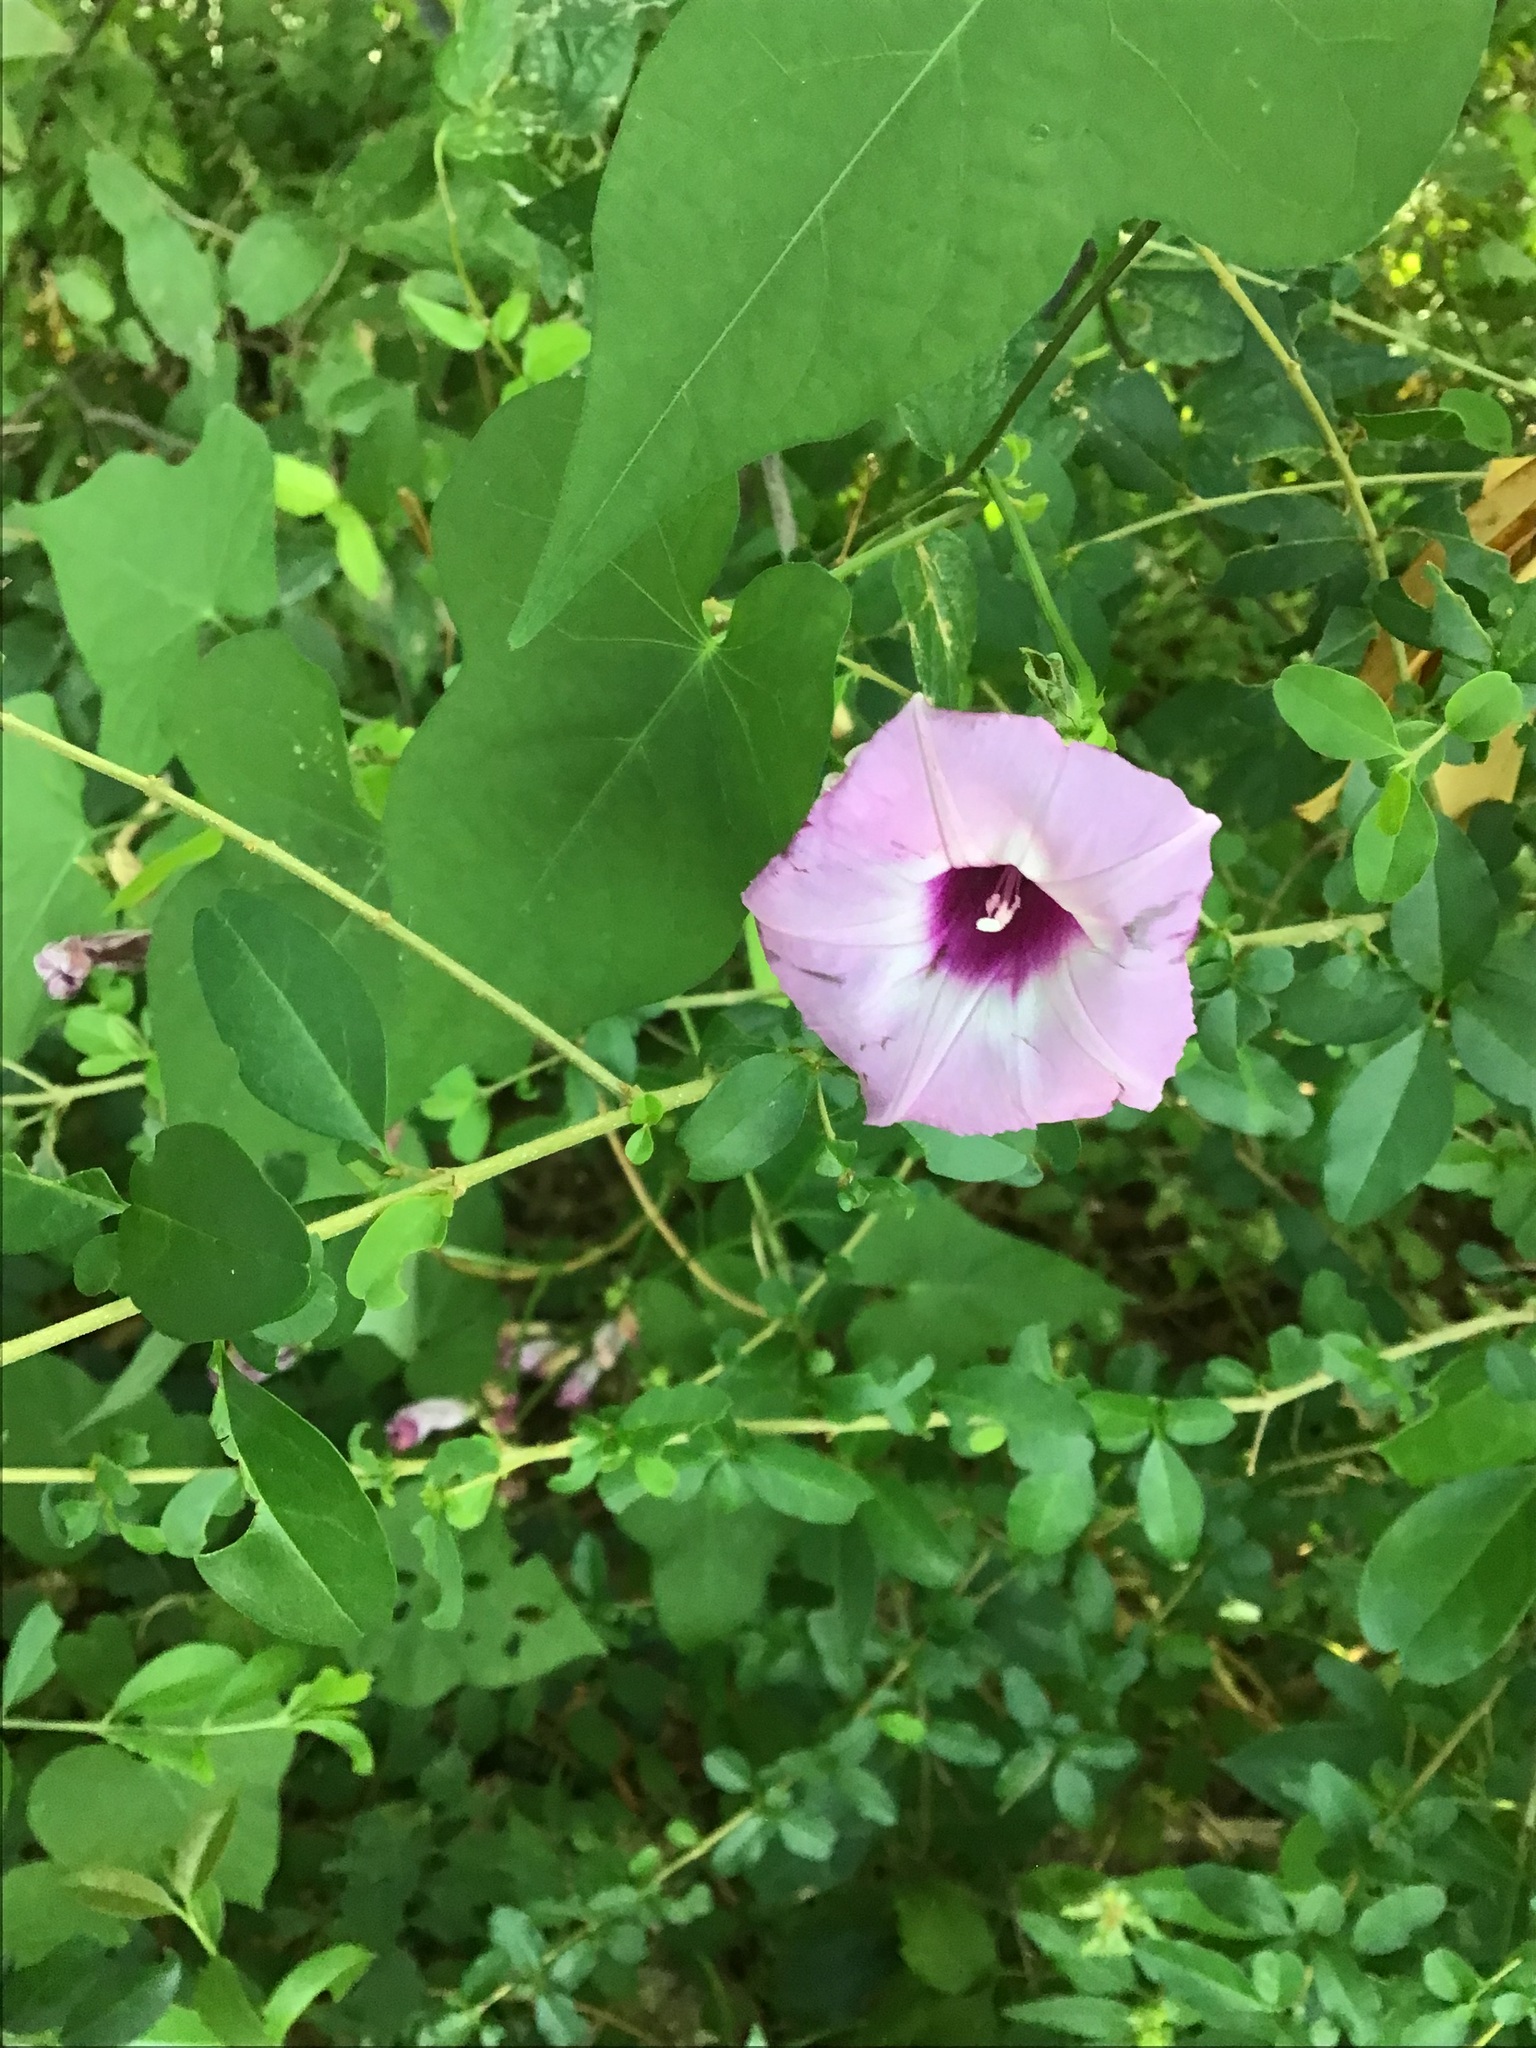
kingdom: Plantae
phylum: Tracheophyta
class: Magnoliopsida
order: Solanales
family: Convolvulaceae
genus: Ipomoea
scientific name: Ipomoea cordatotriloba
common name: Cotton morning glory
